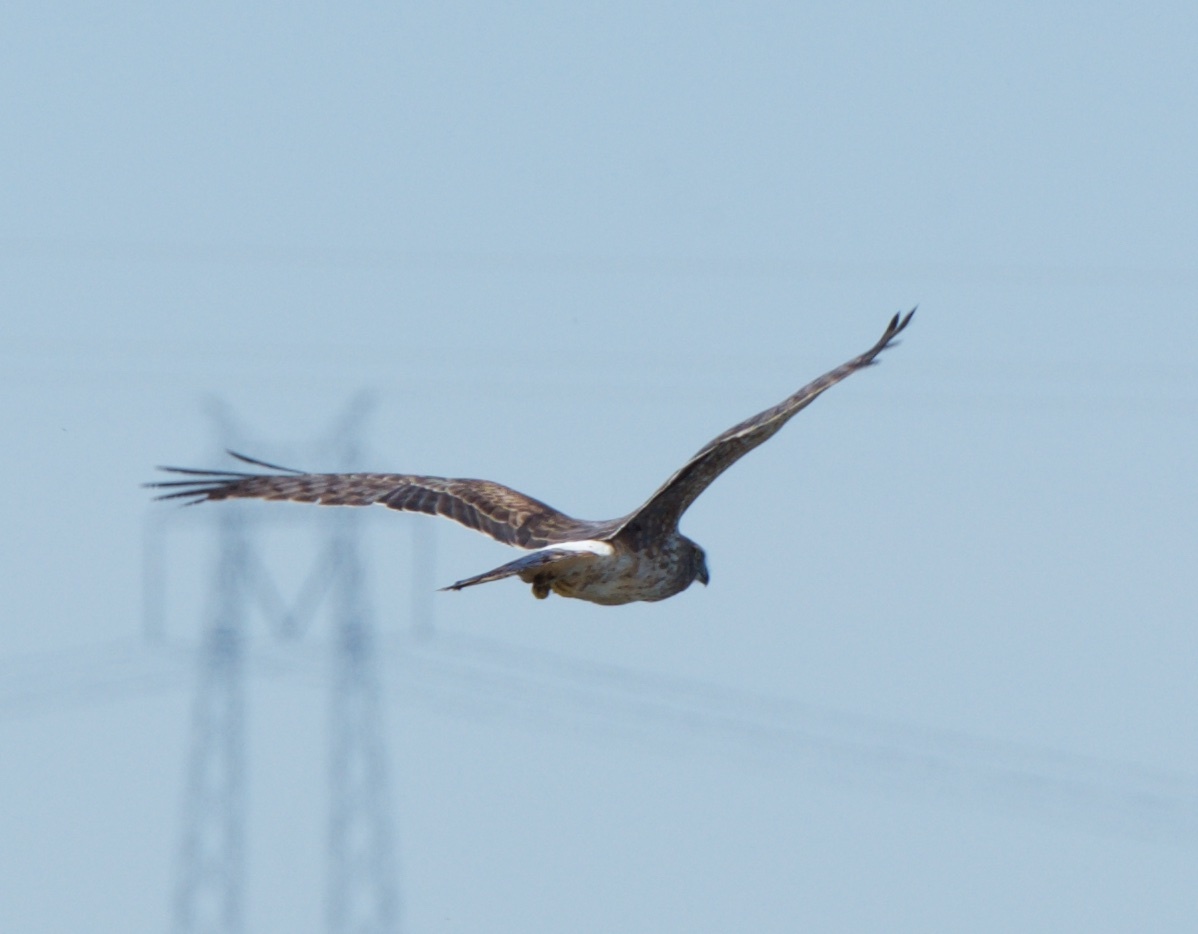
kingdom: Animalia
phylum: Chordata
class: Aves
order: Accipitriformes
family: Accipitridae
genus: Circus
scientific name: Circus cyaneus
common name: Hen harrier
